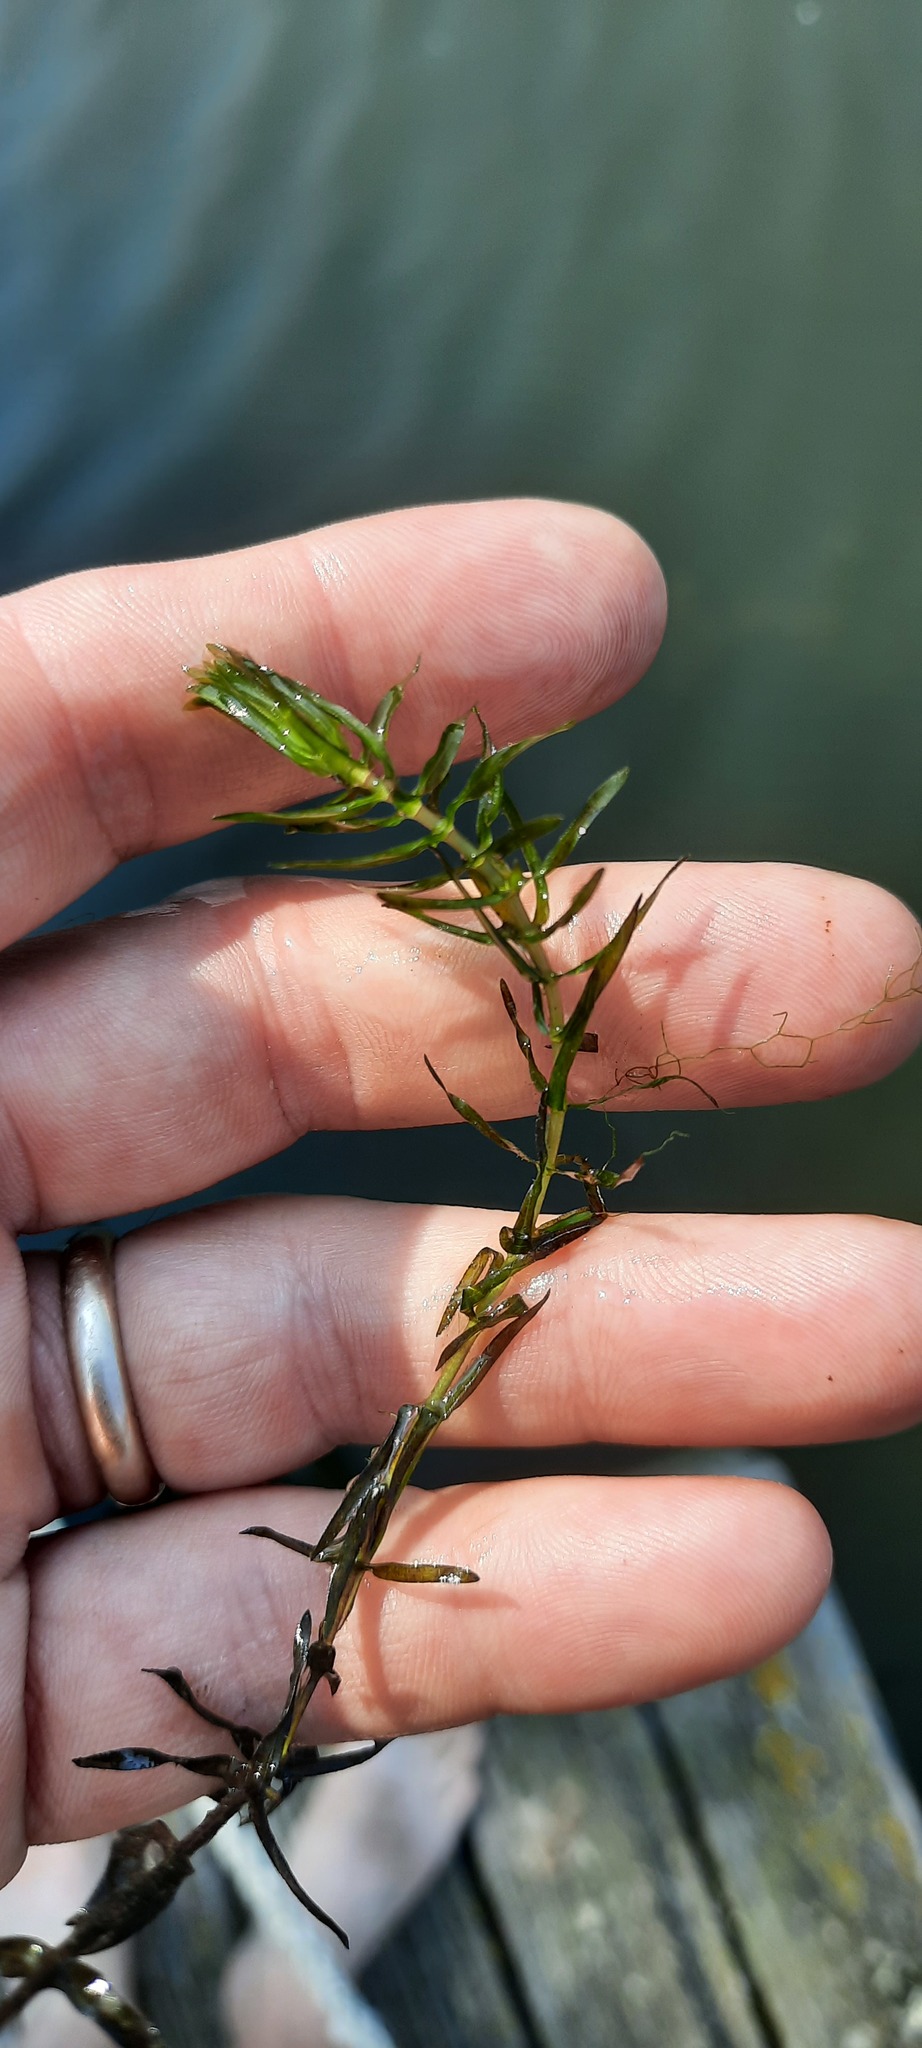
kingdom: Plantae
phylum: Tracheophyta
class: Liliopsida
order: Alismatales
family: Hydrocharitaceae
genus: Elodea
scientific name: Elodea canadensis
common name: Canadian waterweed
